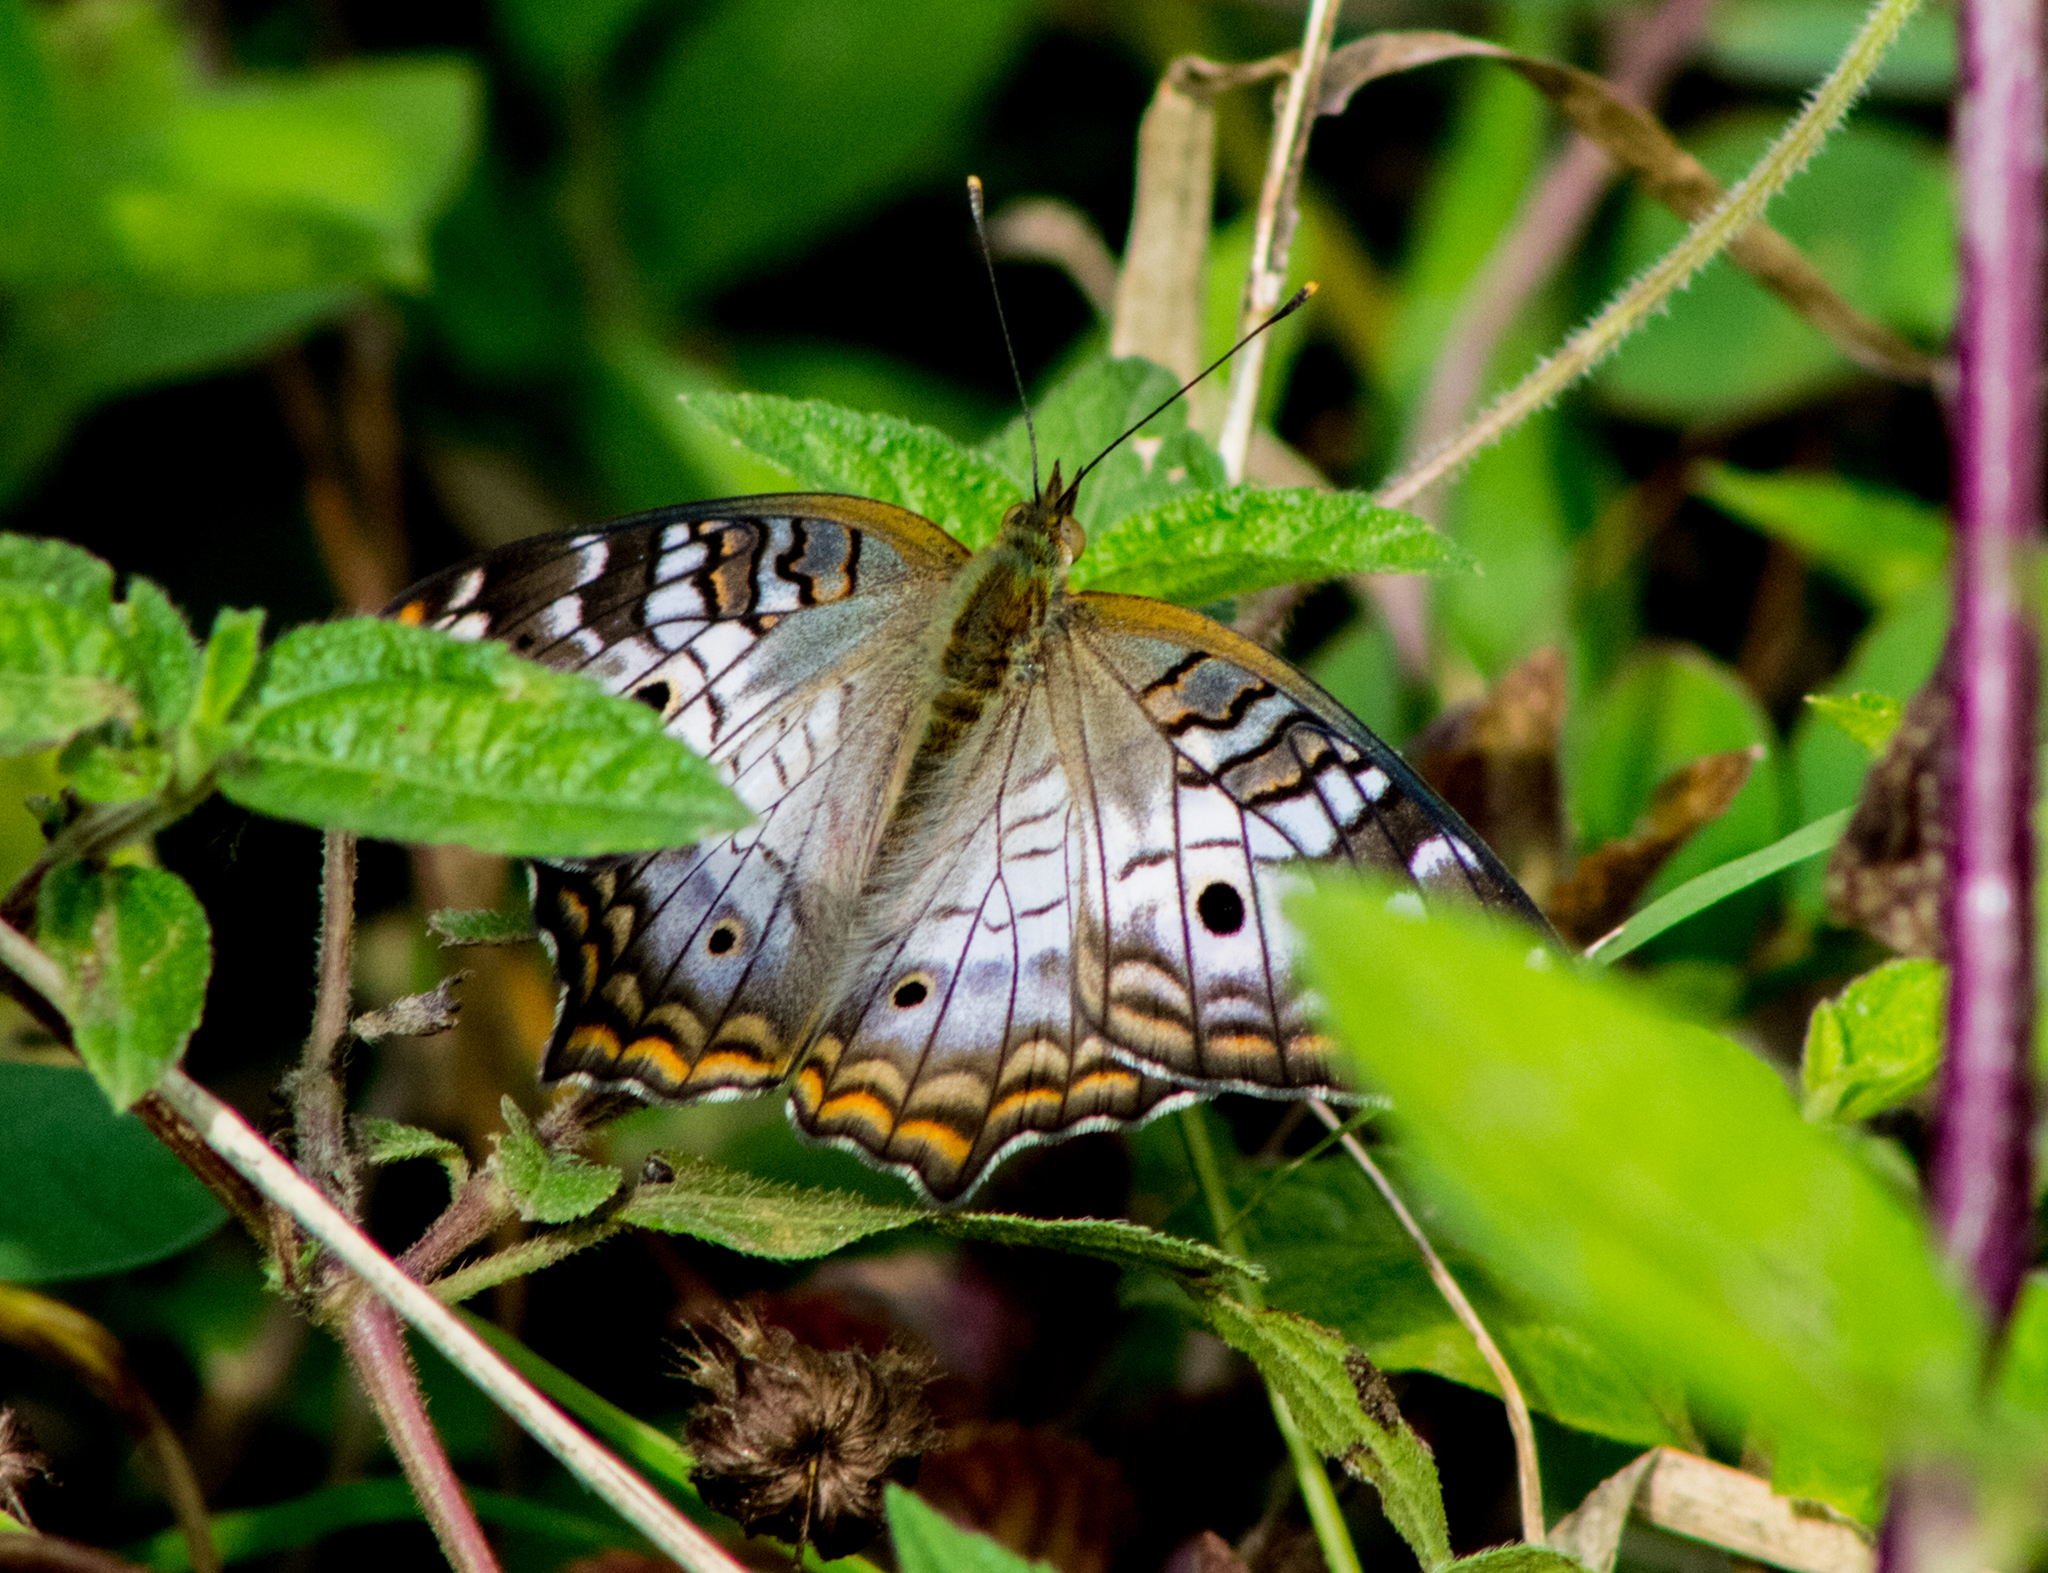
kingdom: Animalia
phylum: Arthropoda
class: Insecta
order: Lepidoptera
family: Nymphalidae
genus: Anartia
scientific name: Anartia jatrophae
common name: White peacock
